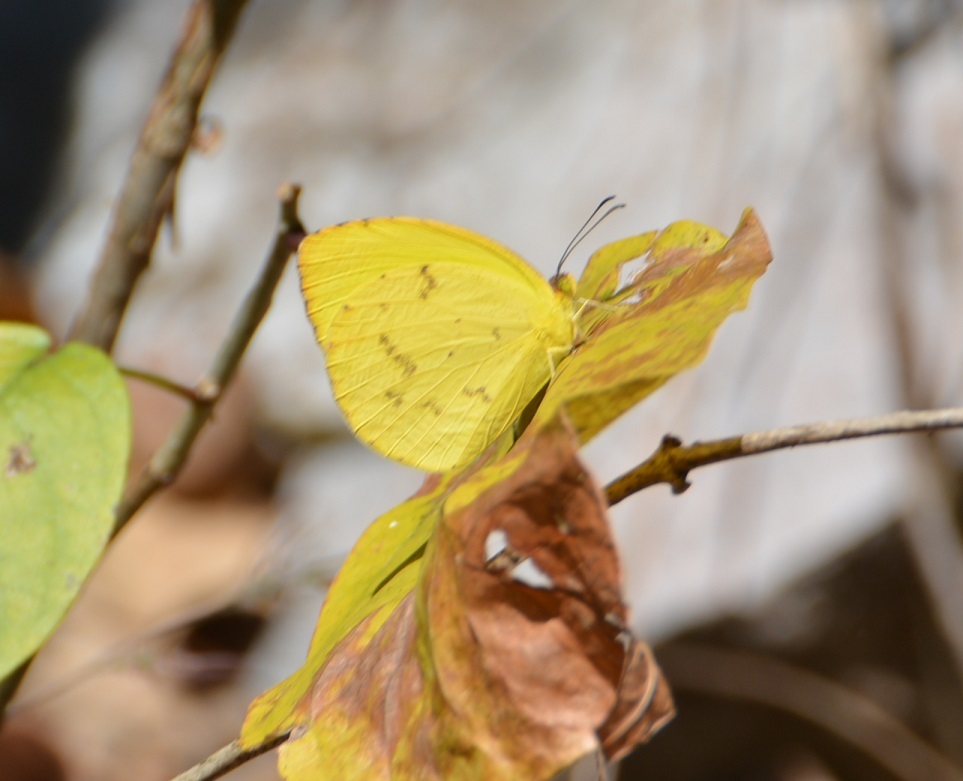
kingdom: Animalia
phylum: Arthropoda
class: Insecta
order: Lepidoptera
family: Pieridae
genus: Pyrisitia
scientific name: Pyrisitia nise
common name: Mimosa yellow
